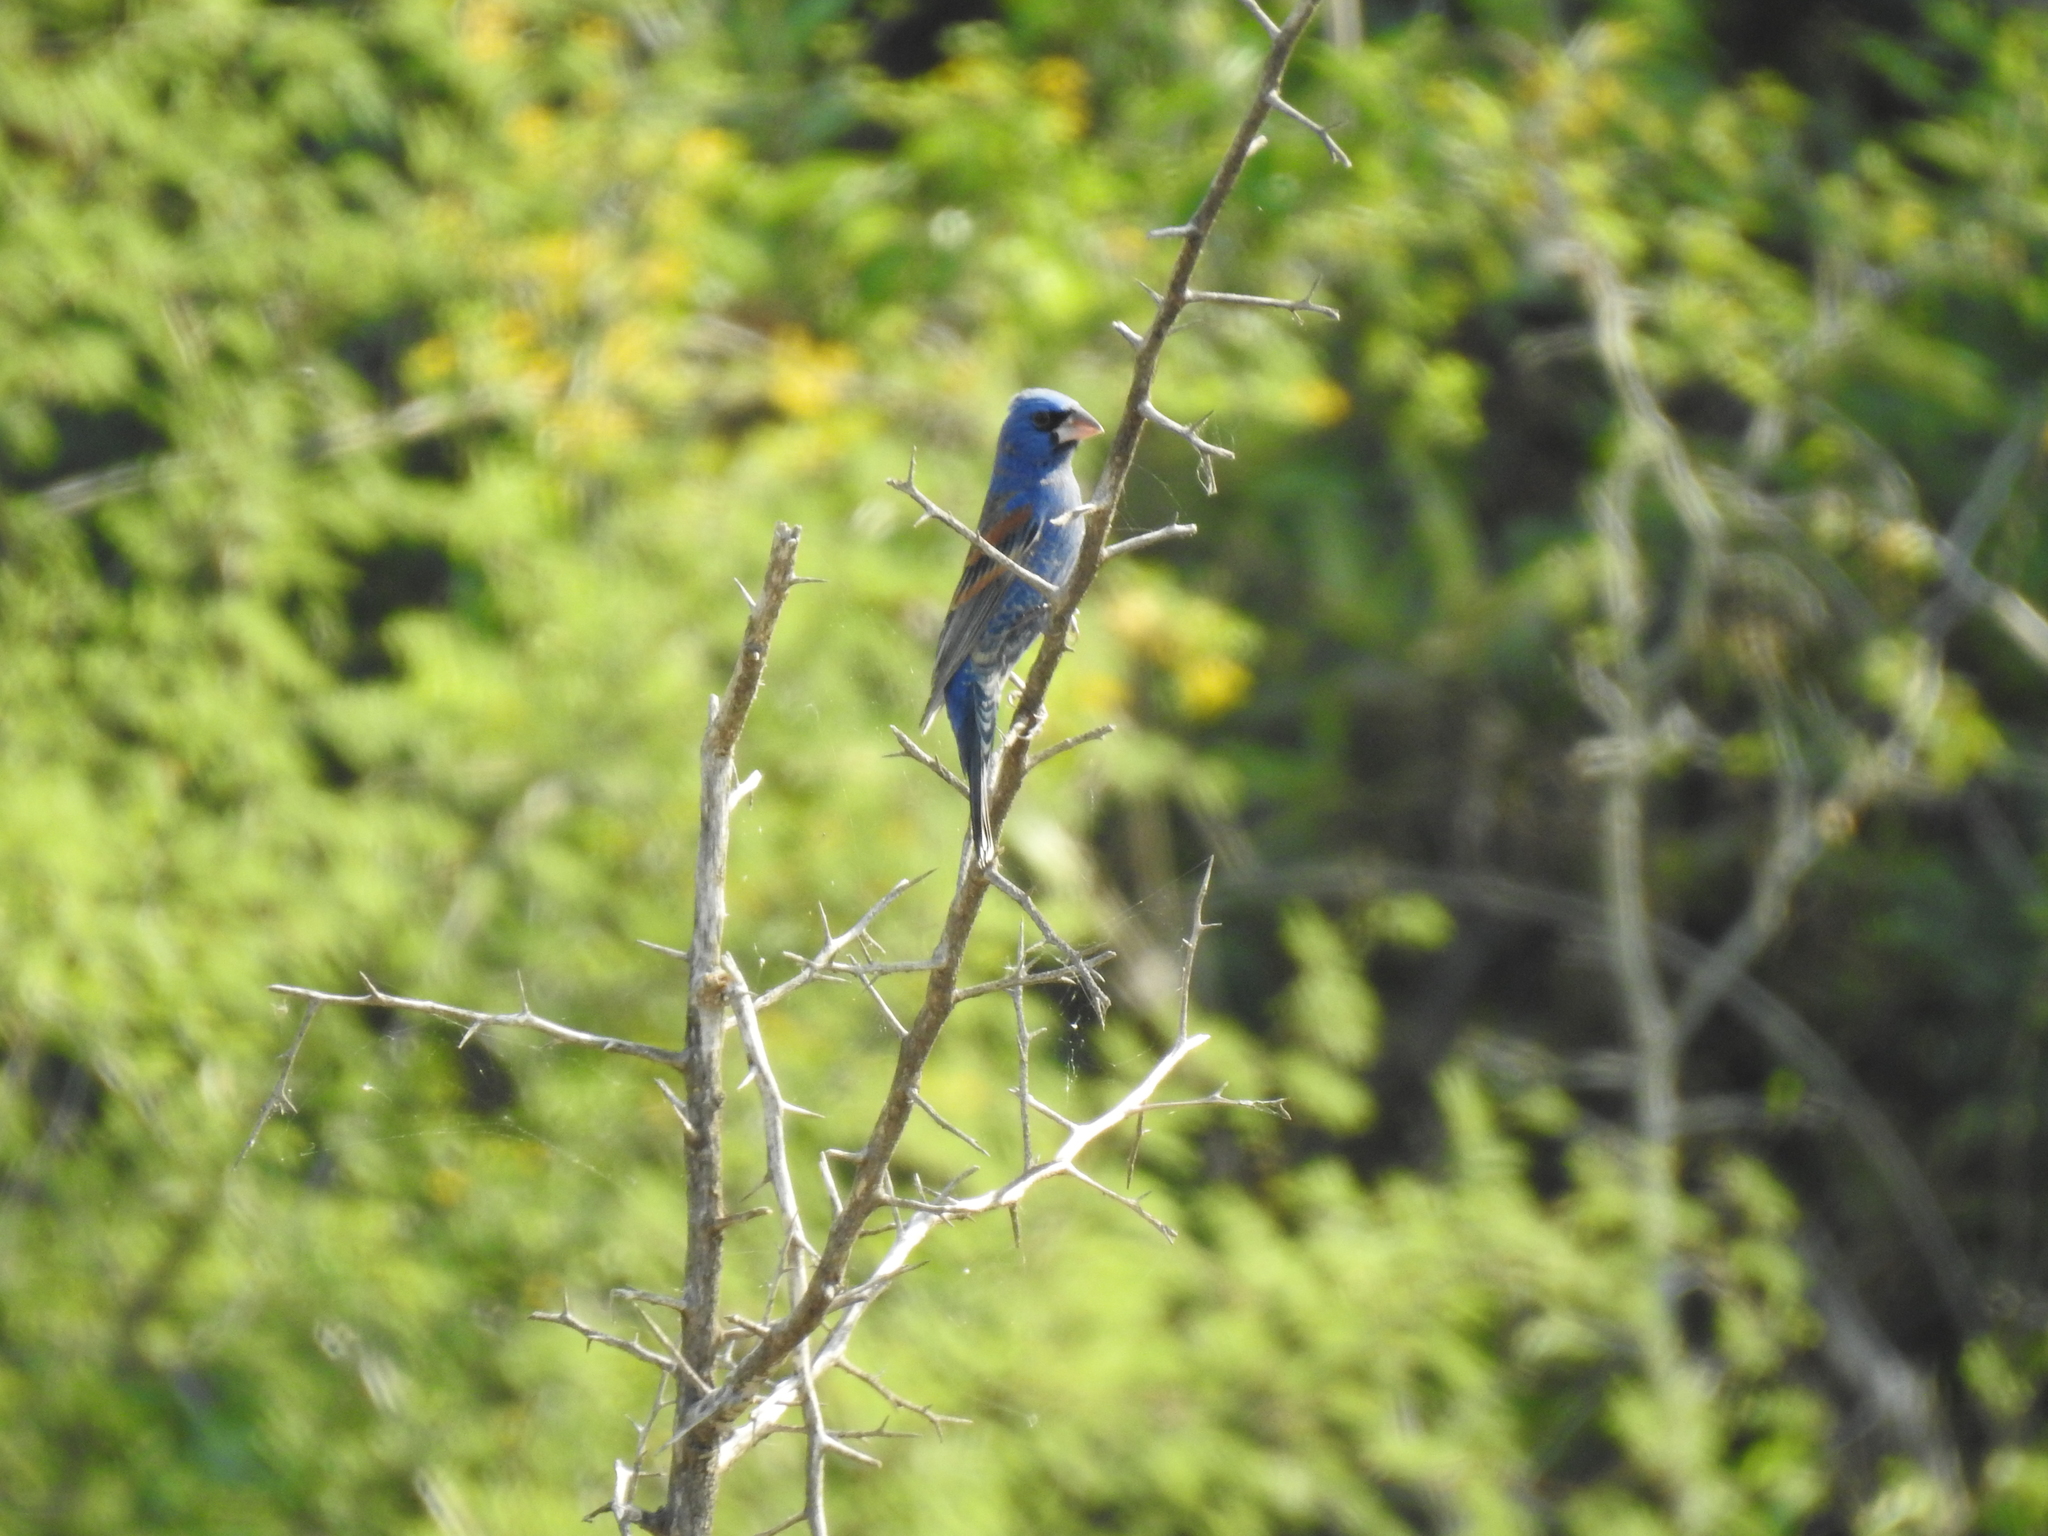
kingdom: Animalia
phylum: Chordata
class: Aves
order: Passeriformes
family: Cardinalidae
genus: Passerina
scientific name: Passerina caerulea
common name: Blue grosbeak
